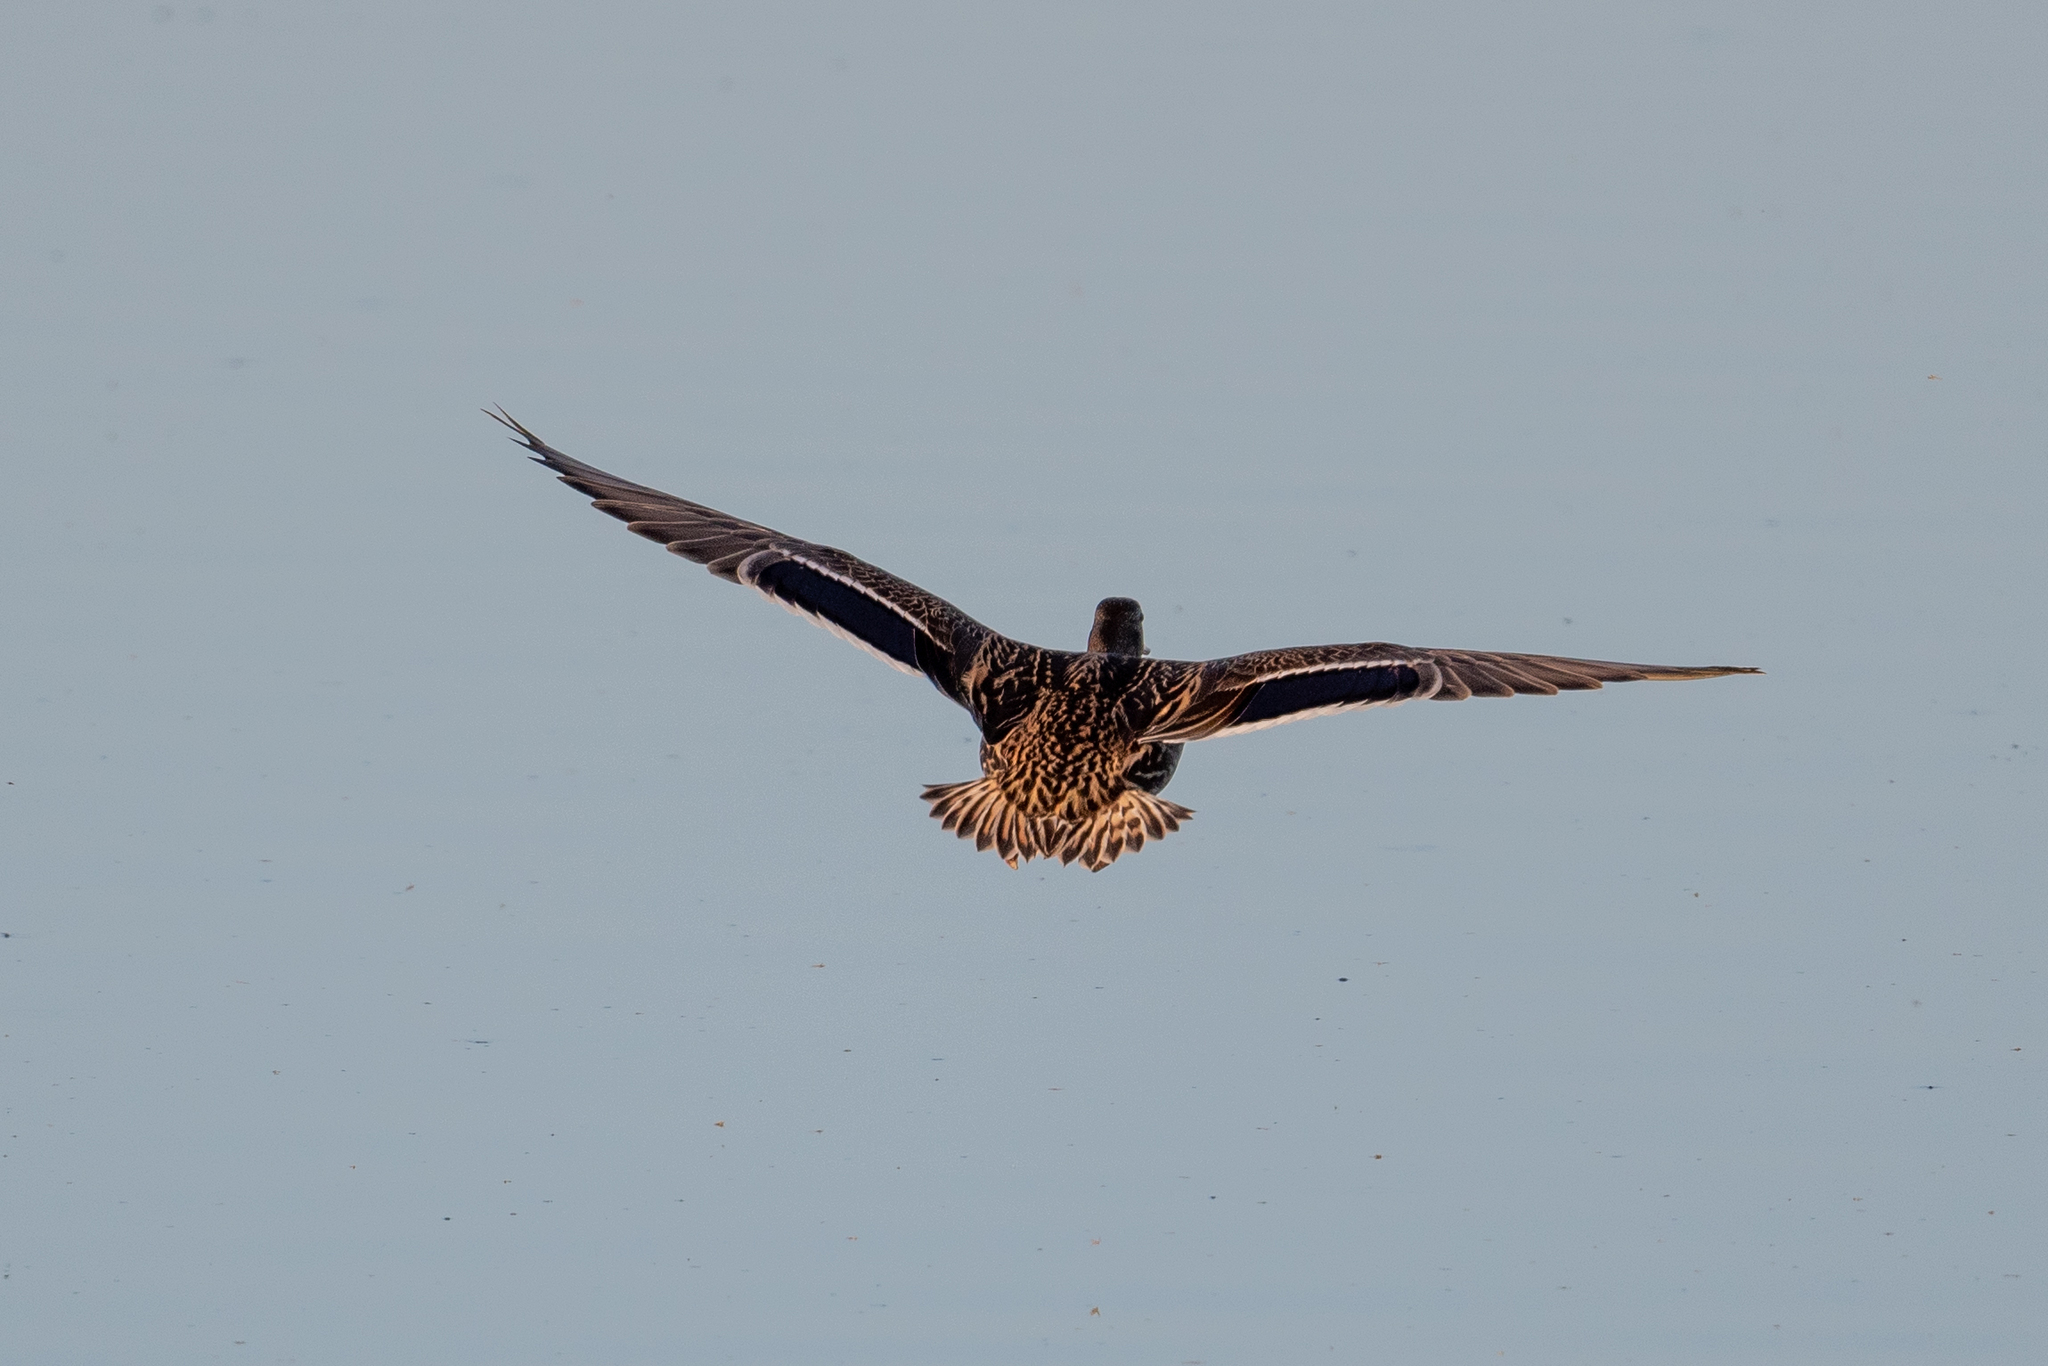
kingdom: Animalia
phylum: Chordata
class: Aves
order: Anseriformes
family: Anatidae
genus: Anas
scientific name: Anas platyrhynchos
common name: Mallard
